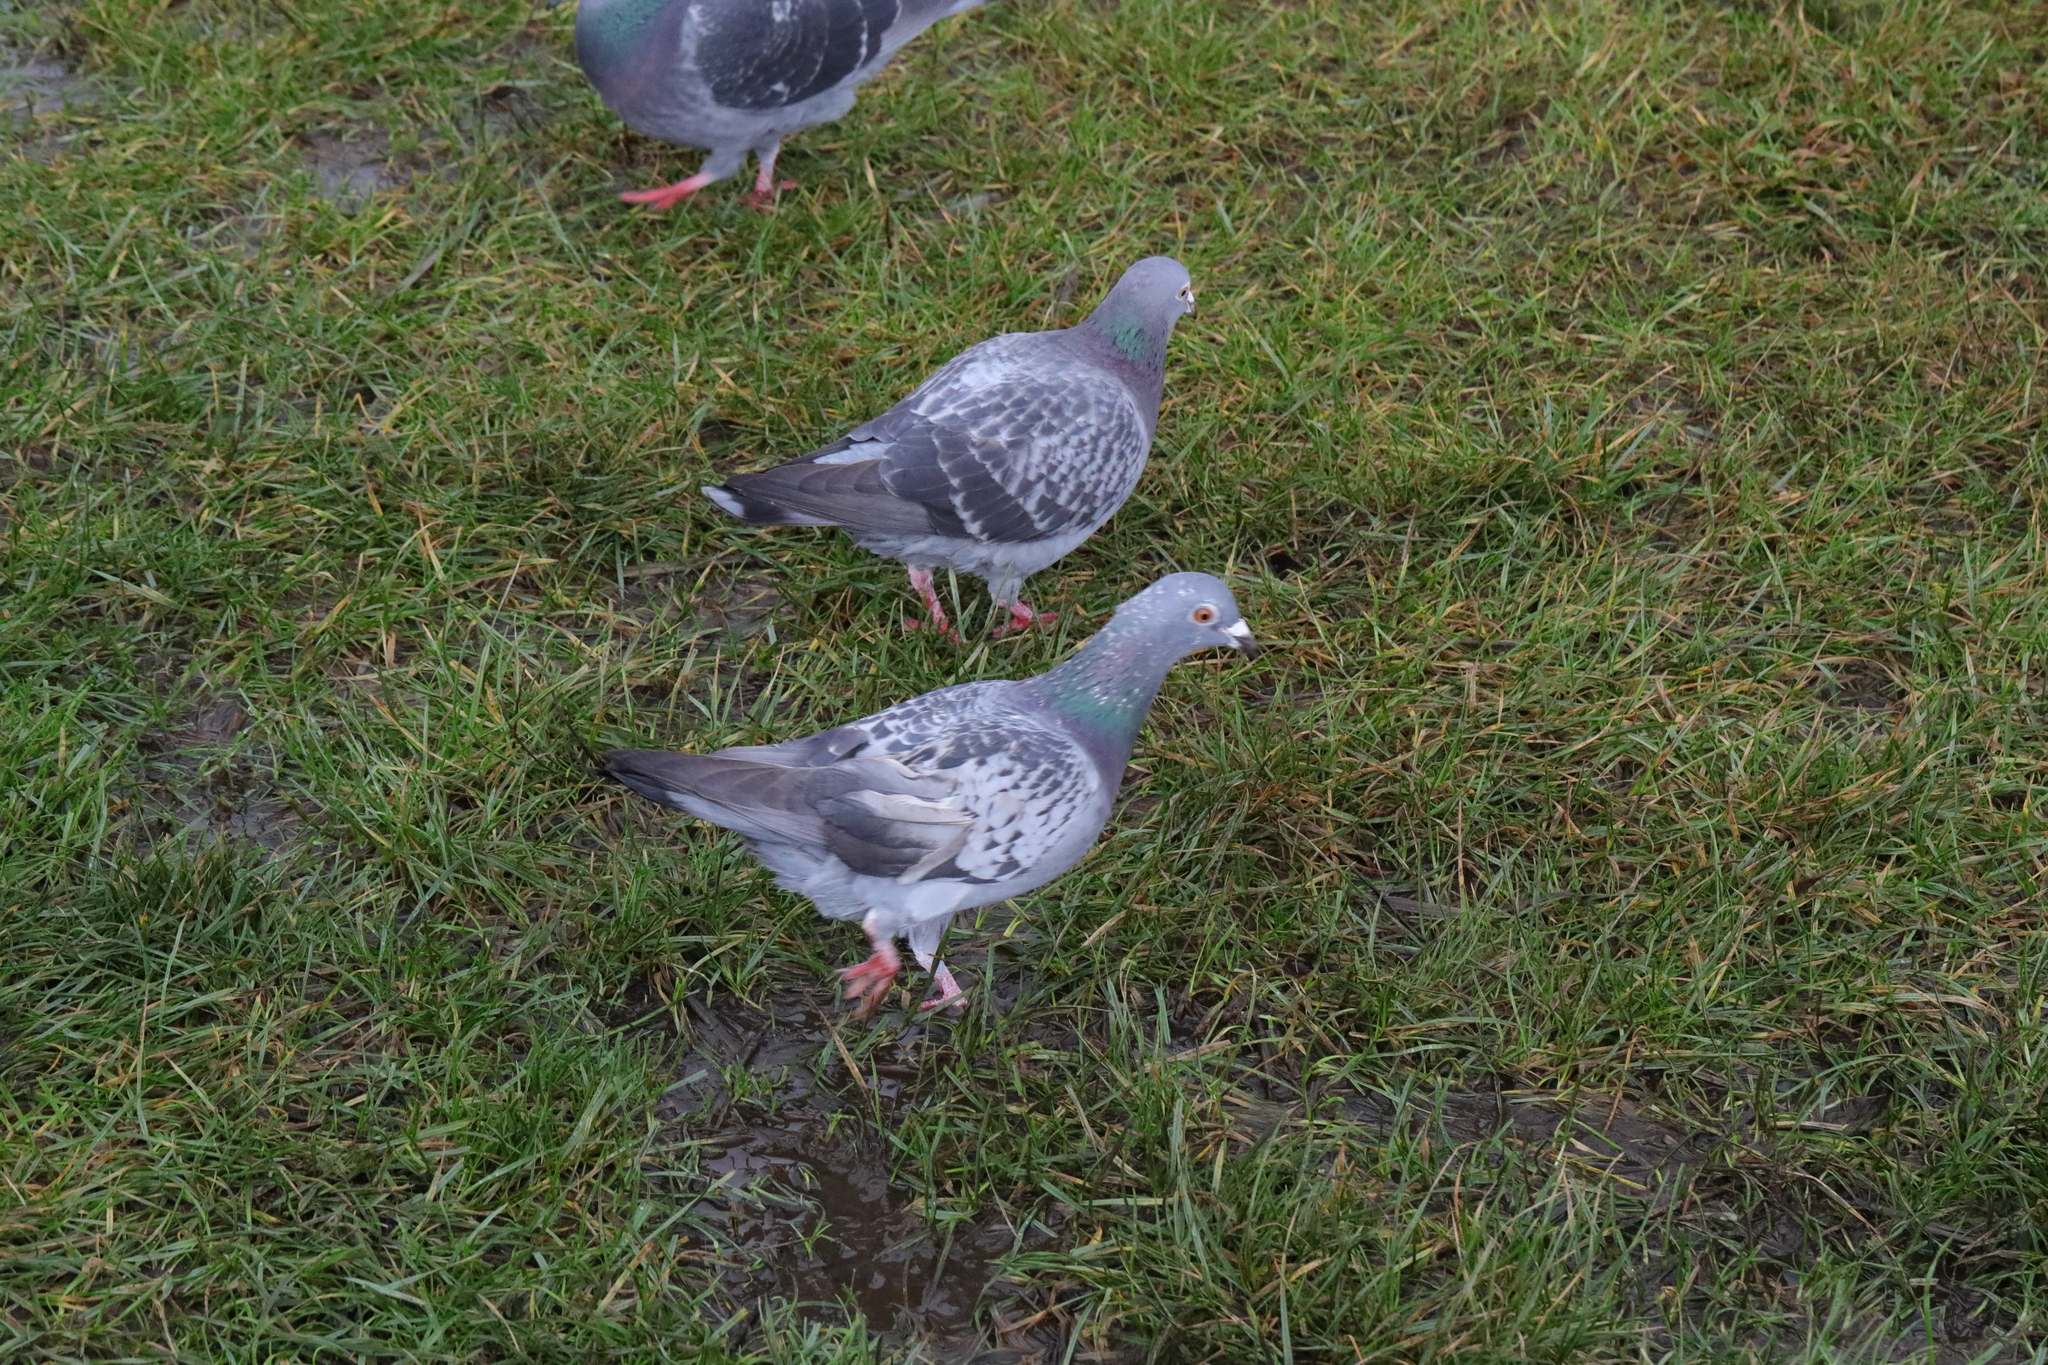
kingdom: Animalia
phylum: Chordata
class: Aves
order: Columbiformes
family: Columbidae
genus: Columba
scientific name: Columba livia
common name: Rock pigeon
